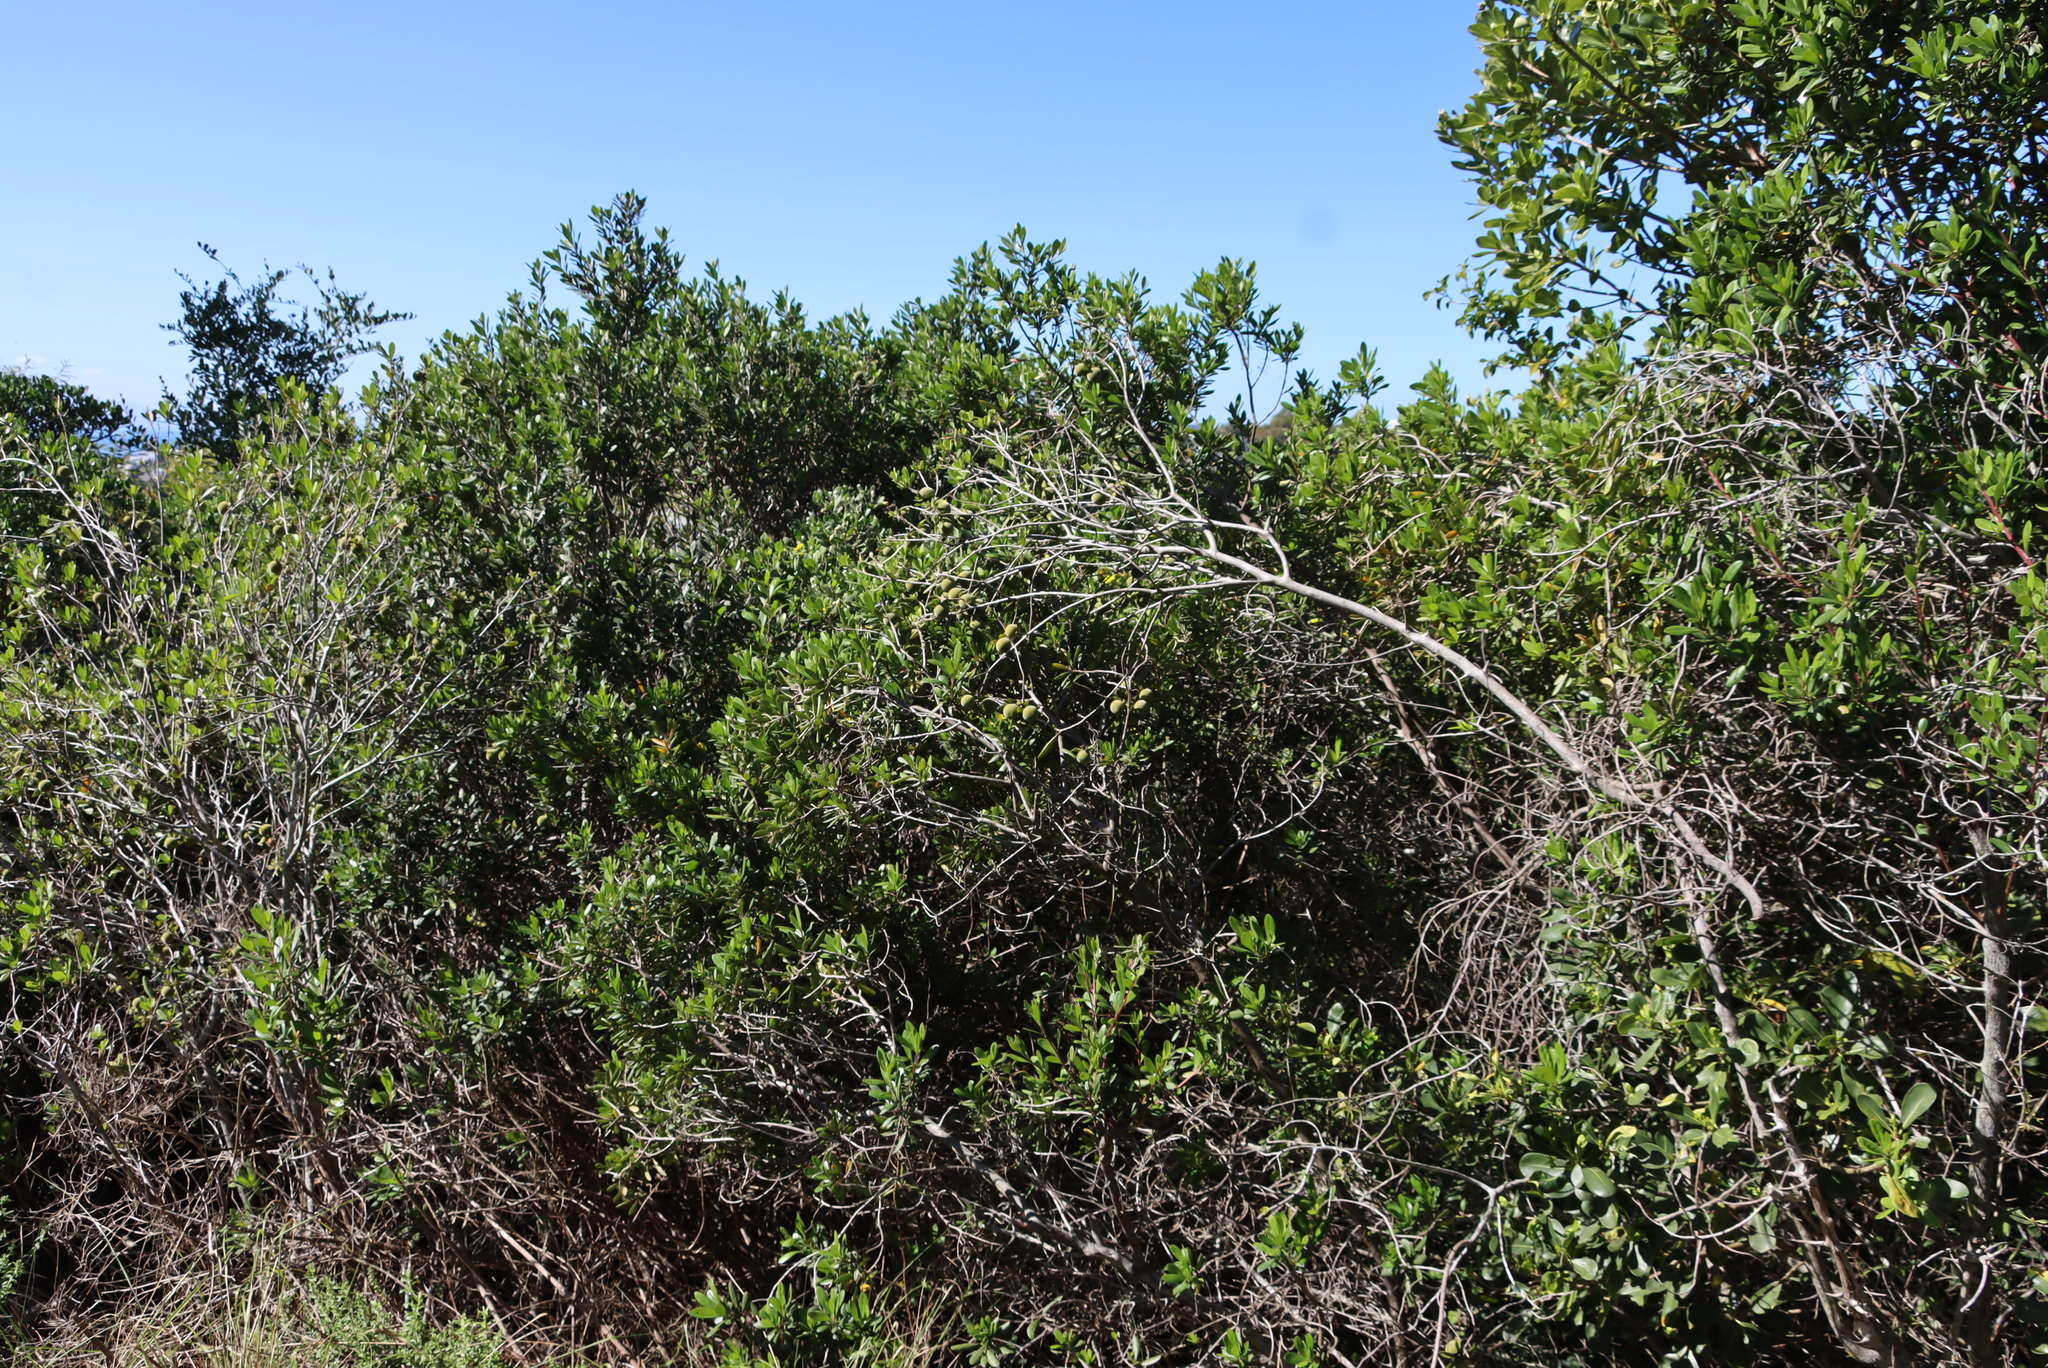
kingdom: Plantae
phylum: Tracheophyta
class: Magnoliopsida
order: Ericales
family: Ebenaceae
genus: Diospyros
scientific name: Diospyros dichrophylla
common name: Common star-apple
